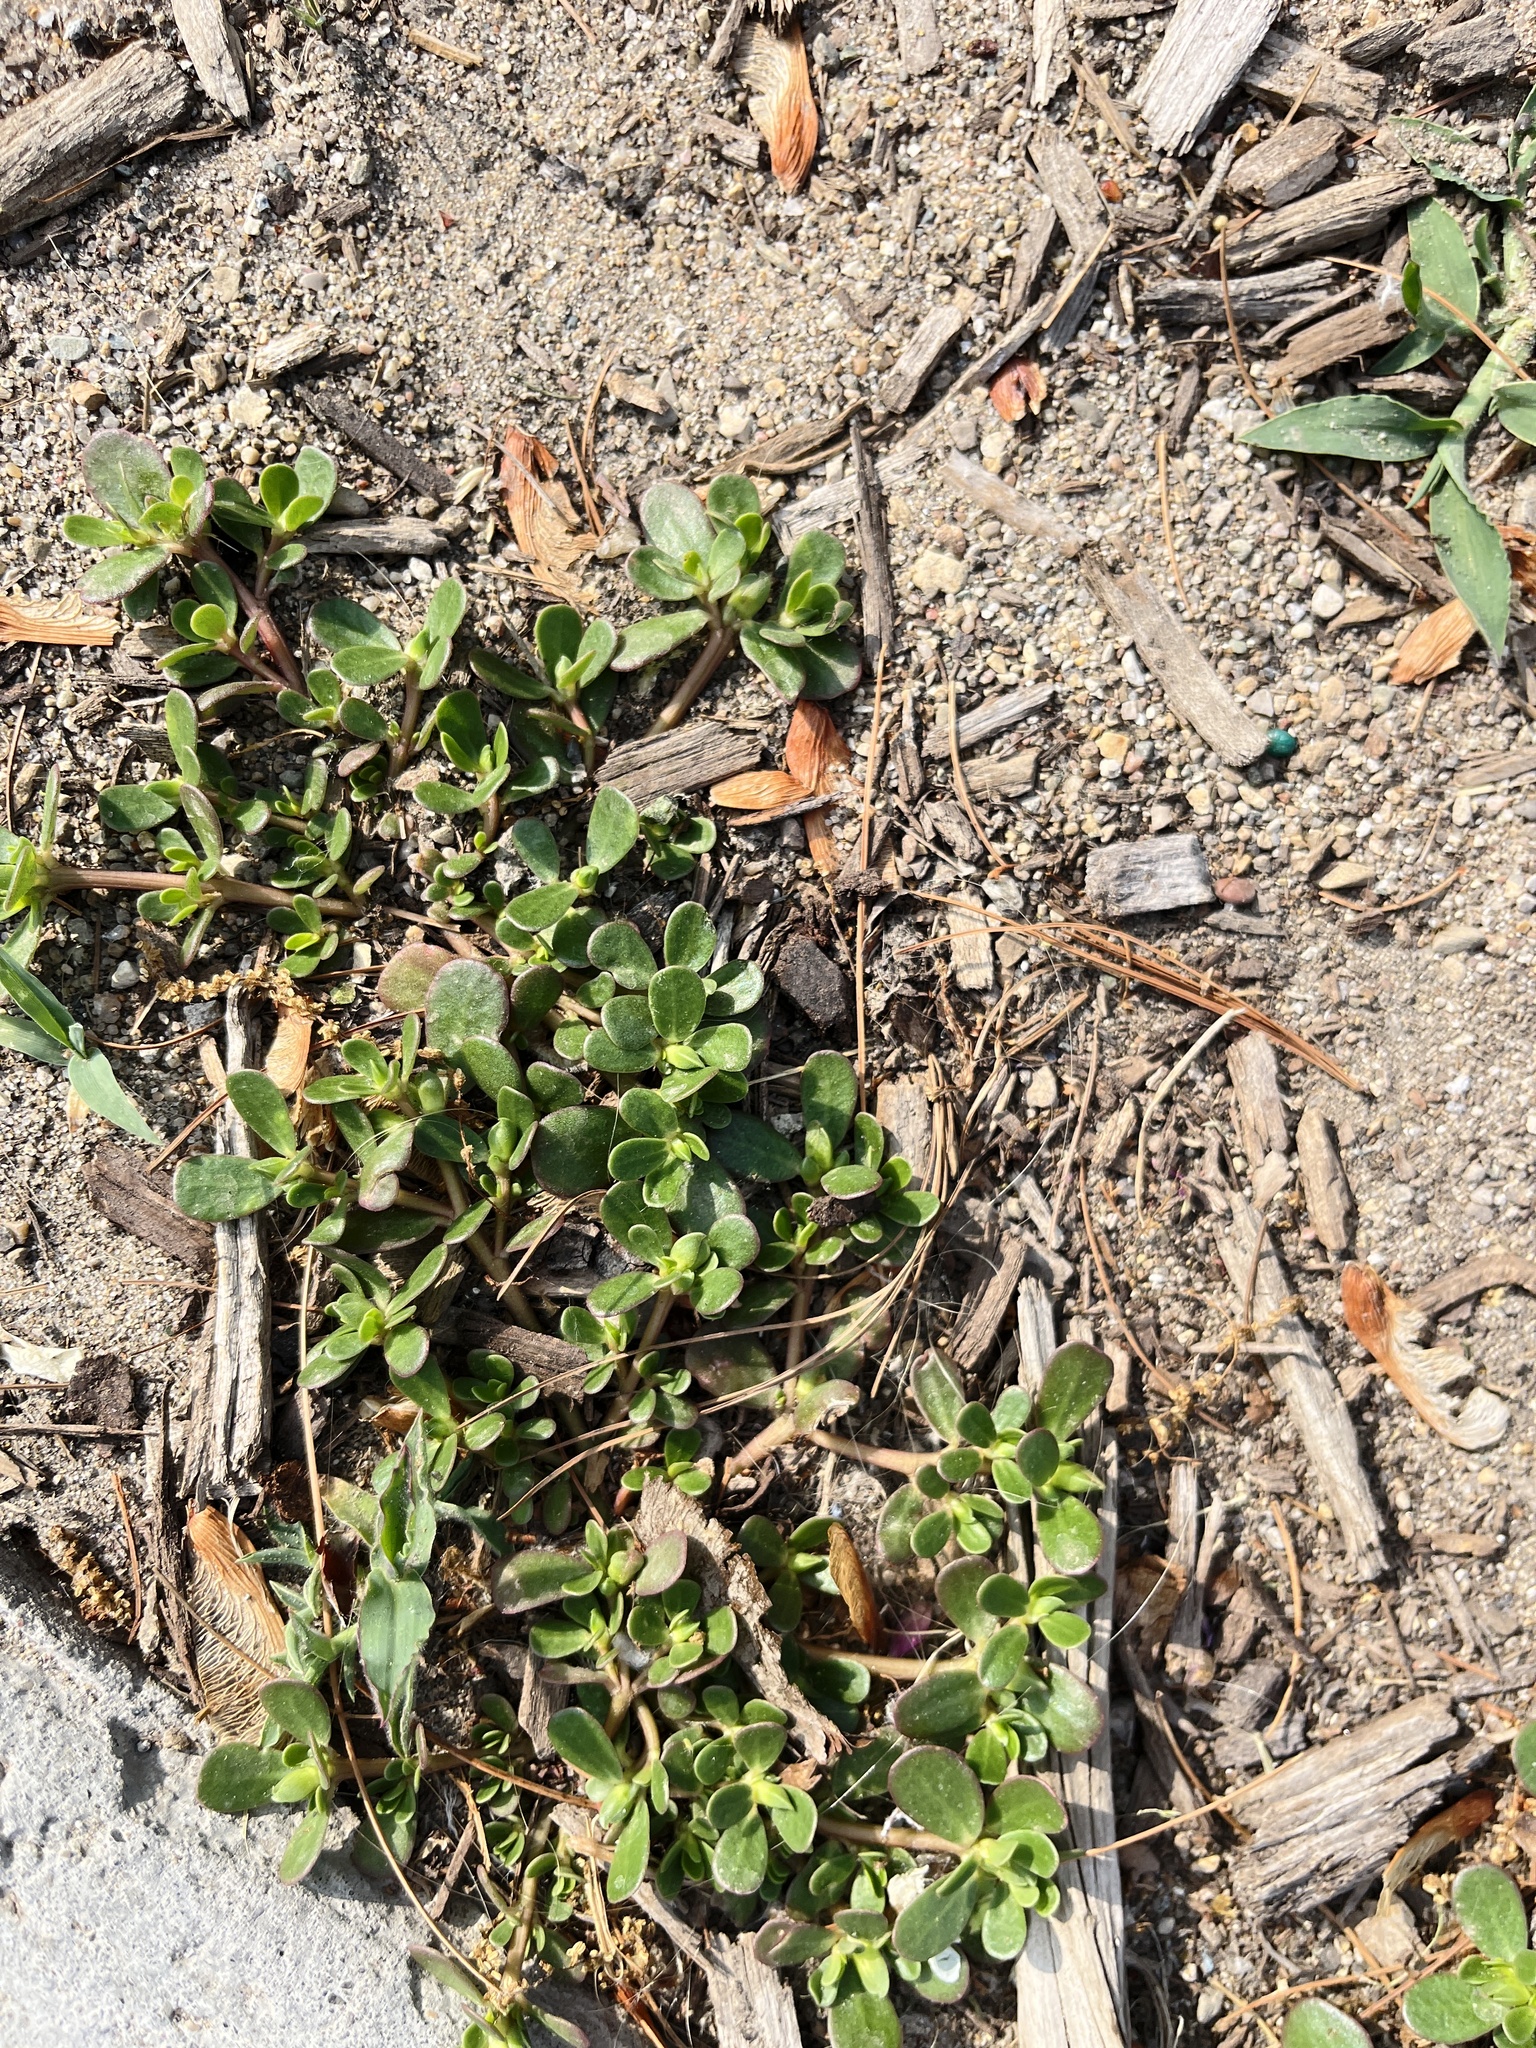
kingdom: Plantae
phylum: Tracheophyta
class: Magnoliopsida
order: Caryophyllales
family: Portulacaceae
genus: Portulaca
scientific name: Portulaca oleracea
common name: Common purslane
